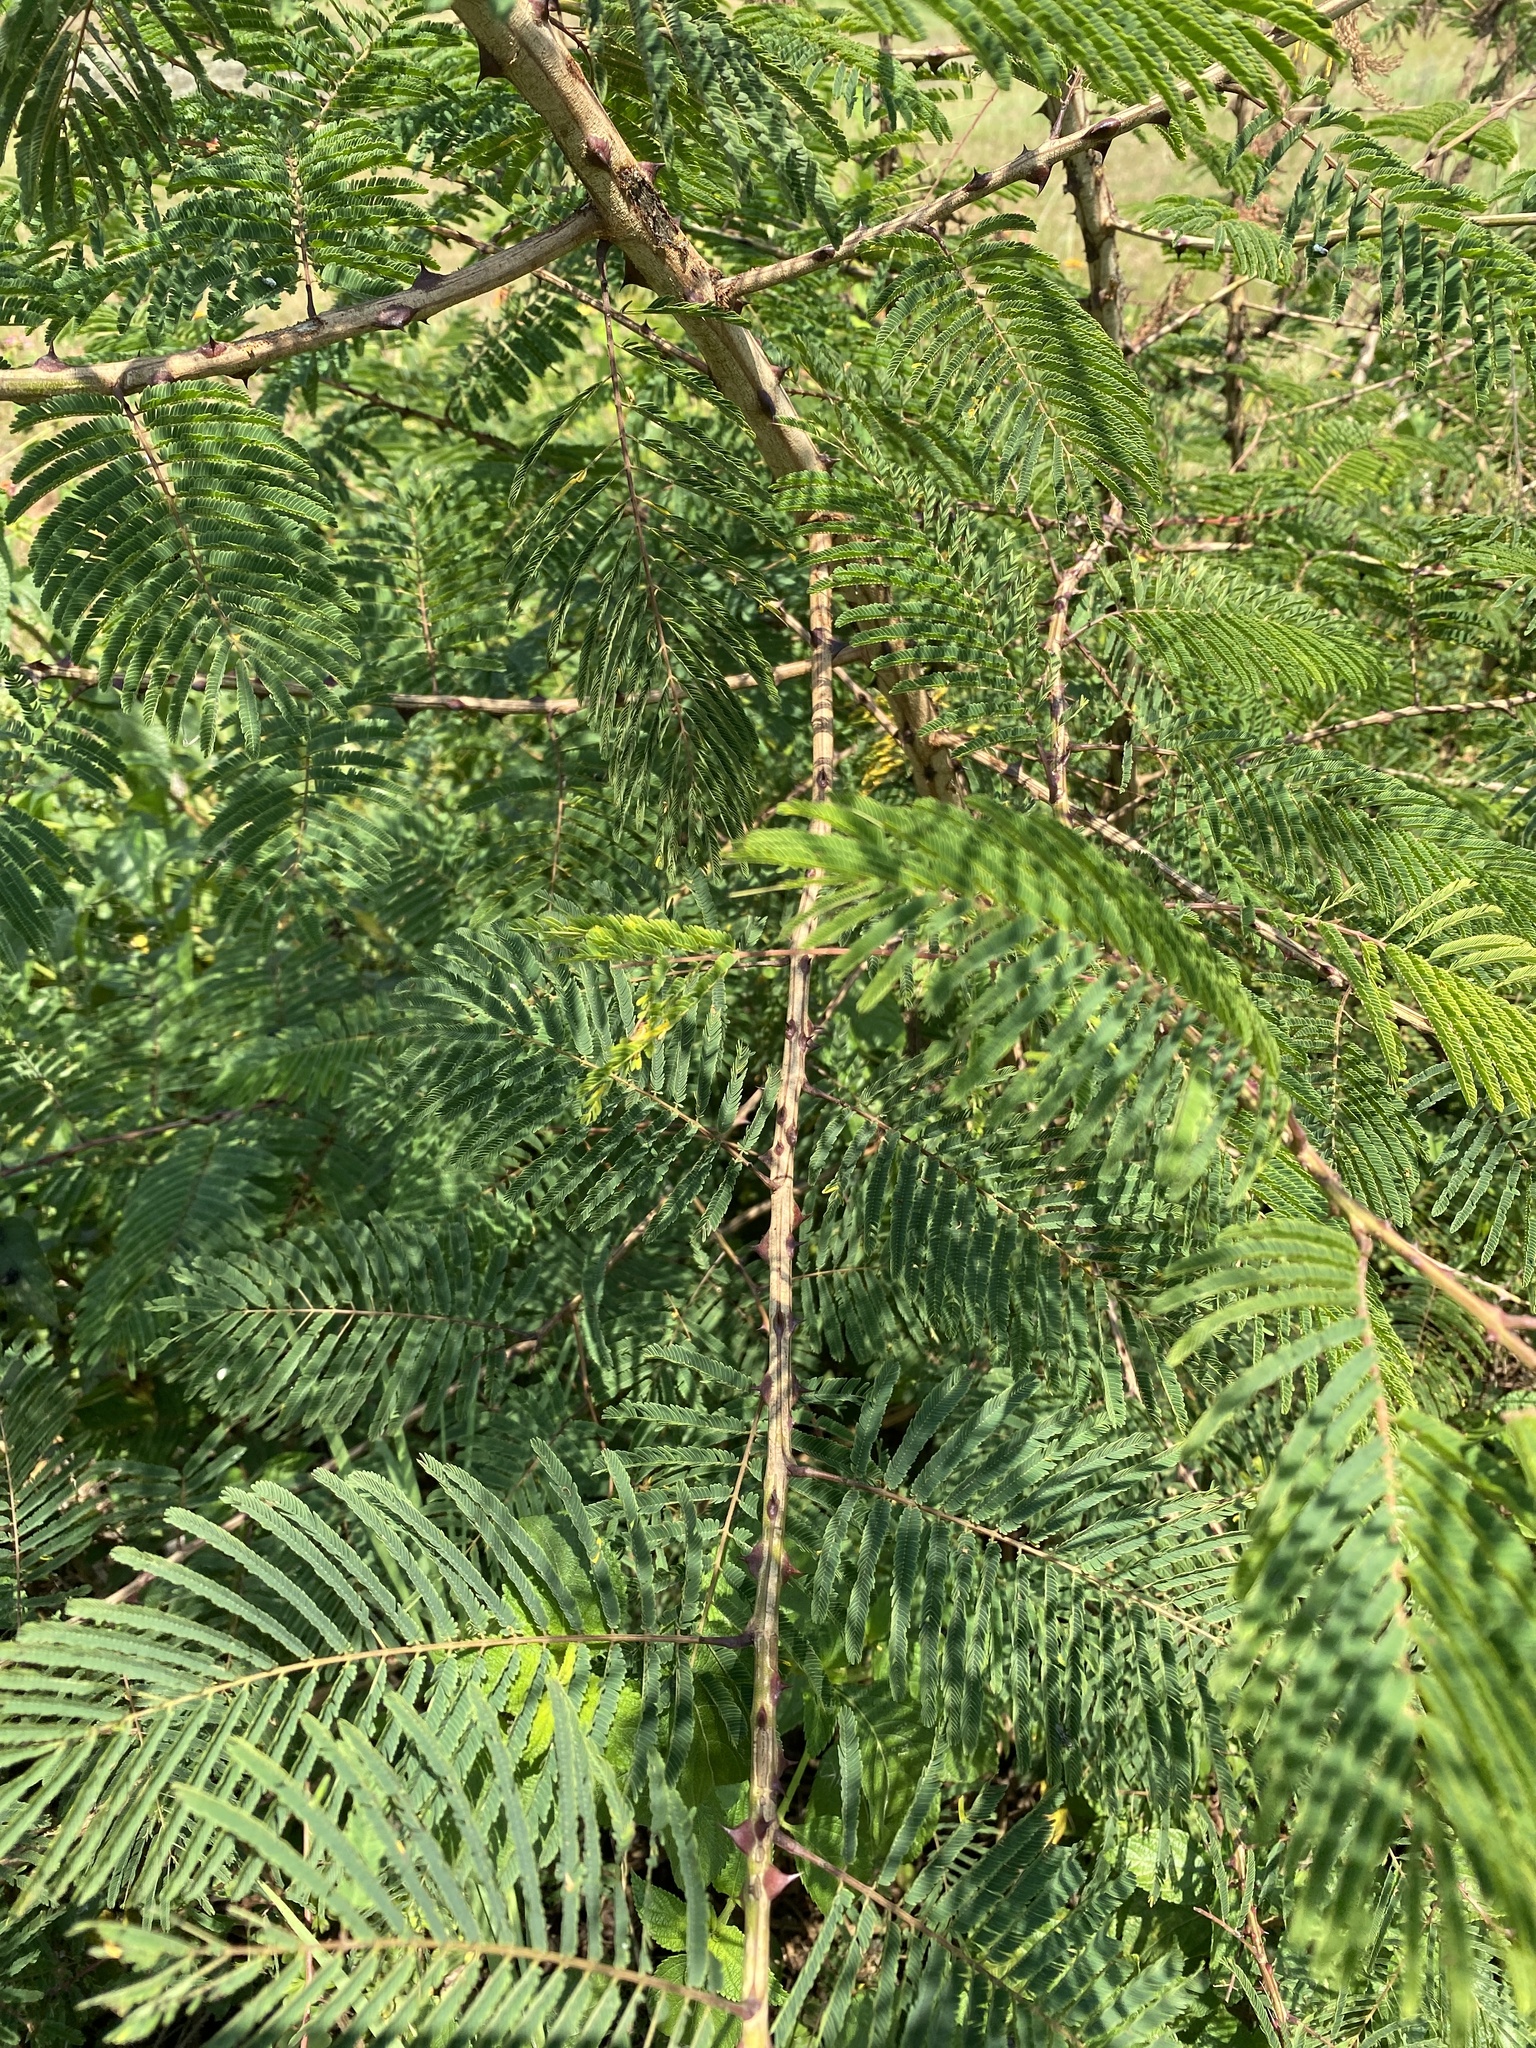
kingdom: Plantae
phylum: Tracheophyta
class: Magnoliopsida
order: Fabales
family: Fabaceae
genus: Senegalia
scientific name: Senegalia ataxacantha
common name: Flame acacia
